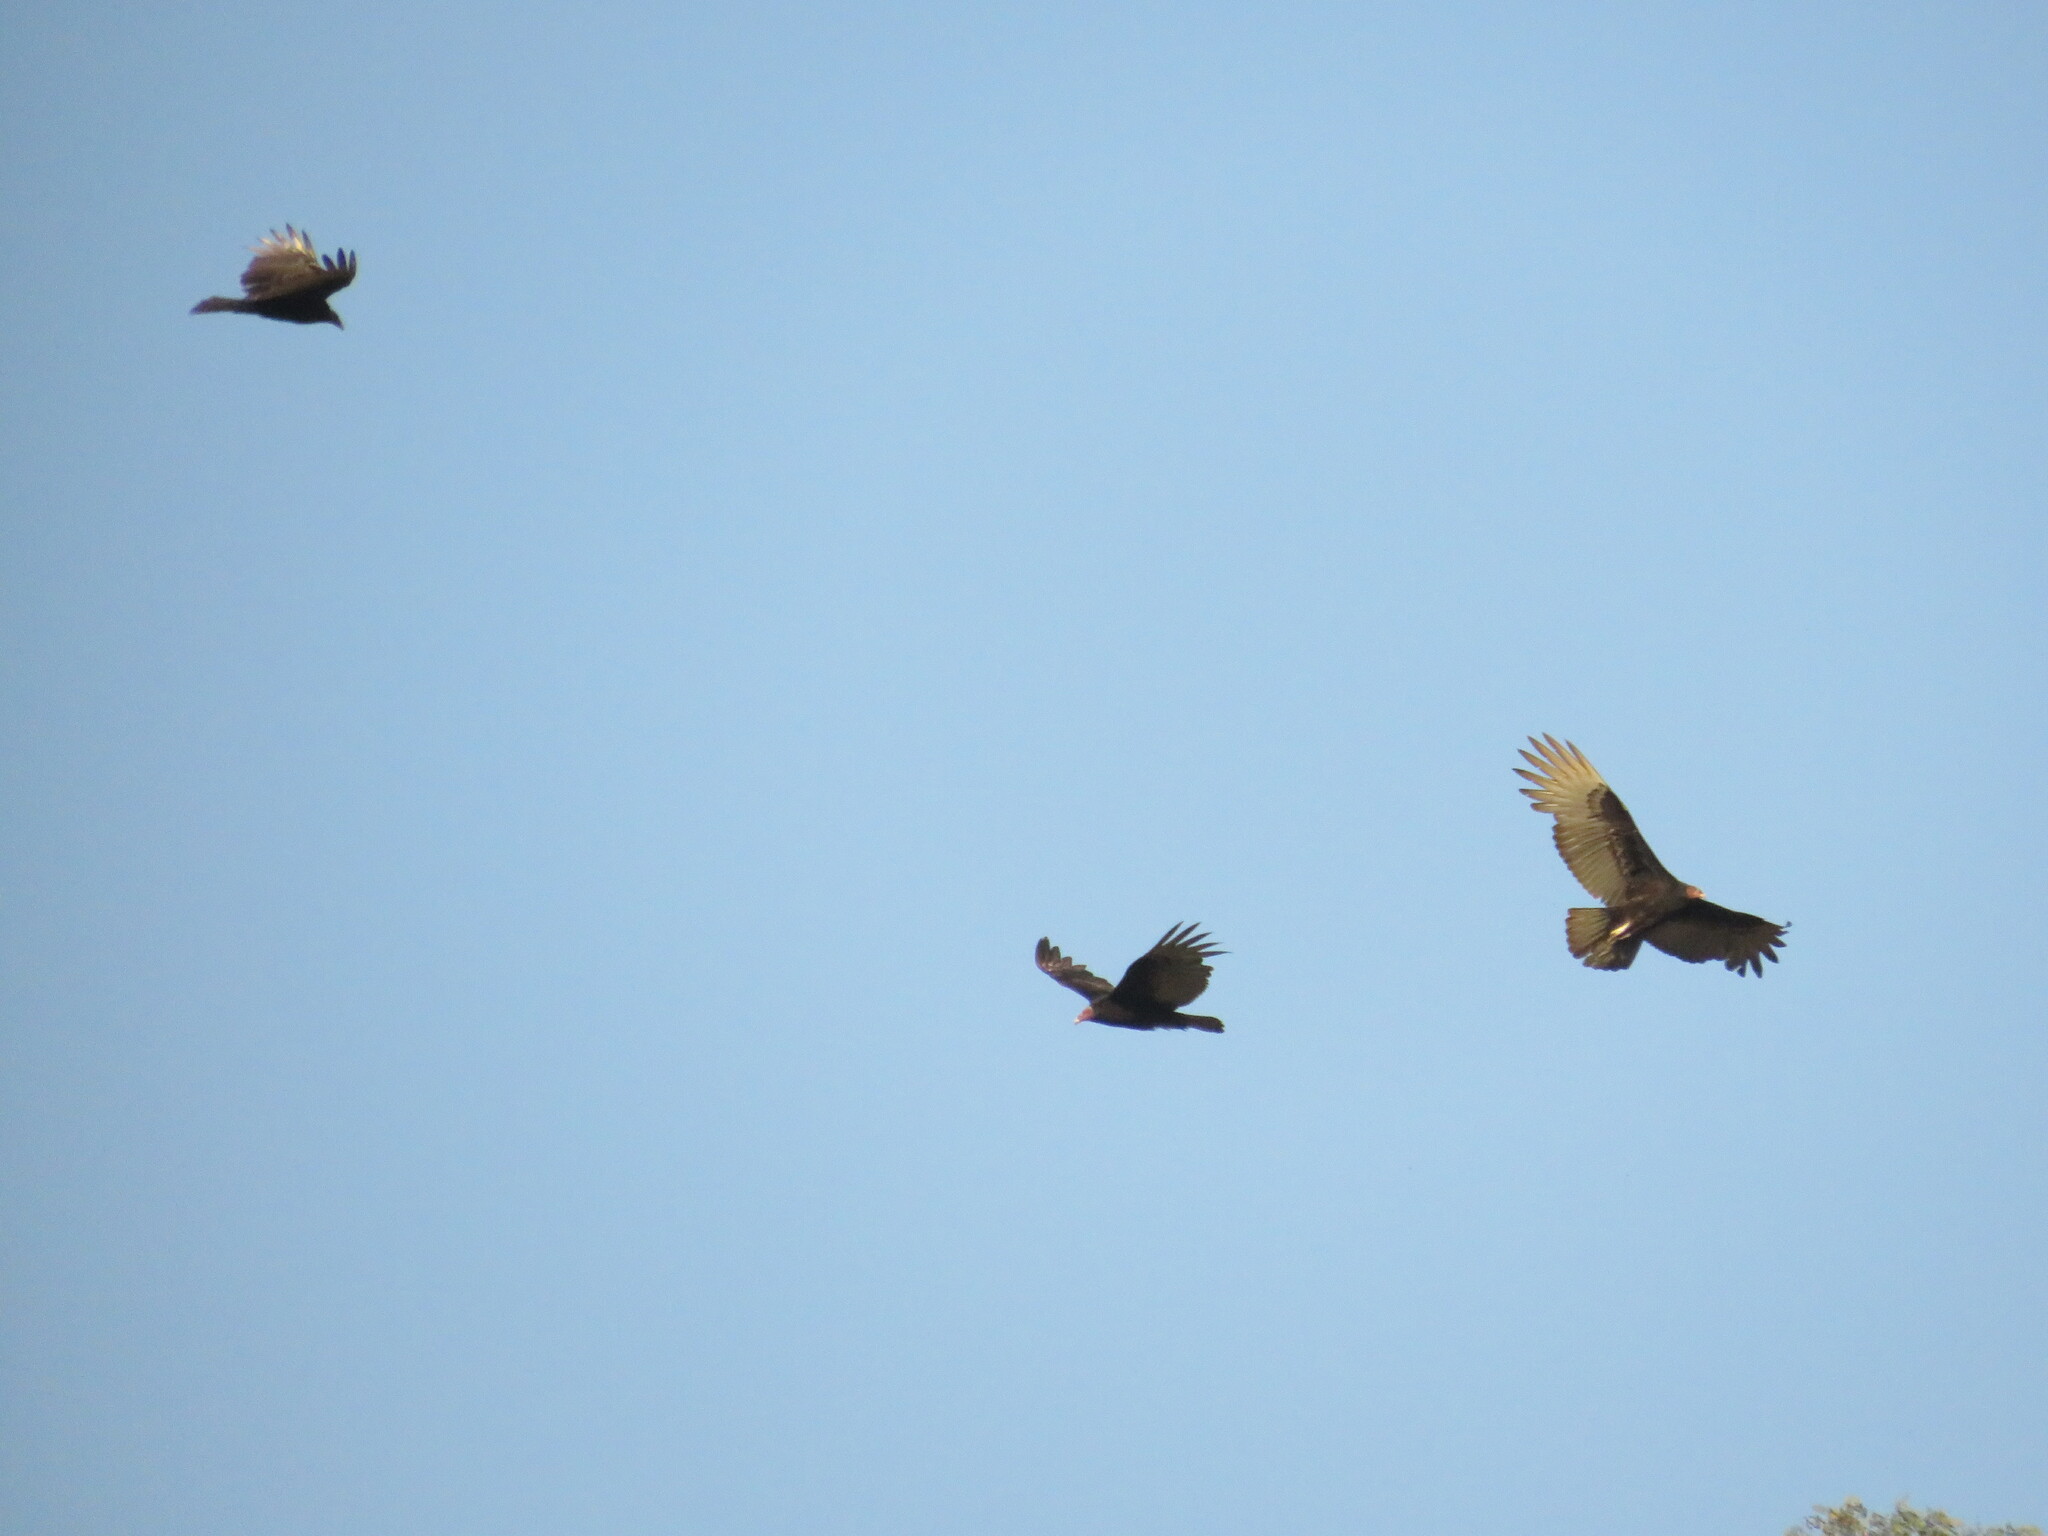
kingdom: Animalia
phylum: Chordata
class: Aves
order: Accipitriformes
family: Cathartidae
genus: Cathartes
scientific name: Cathartes aura
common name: Turkey vulture
